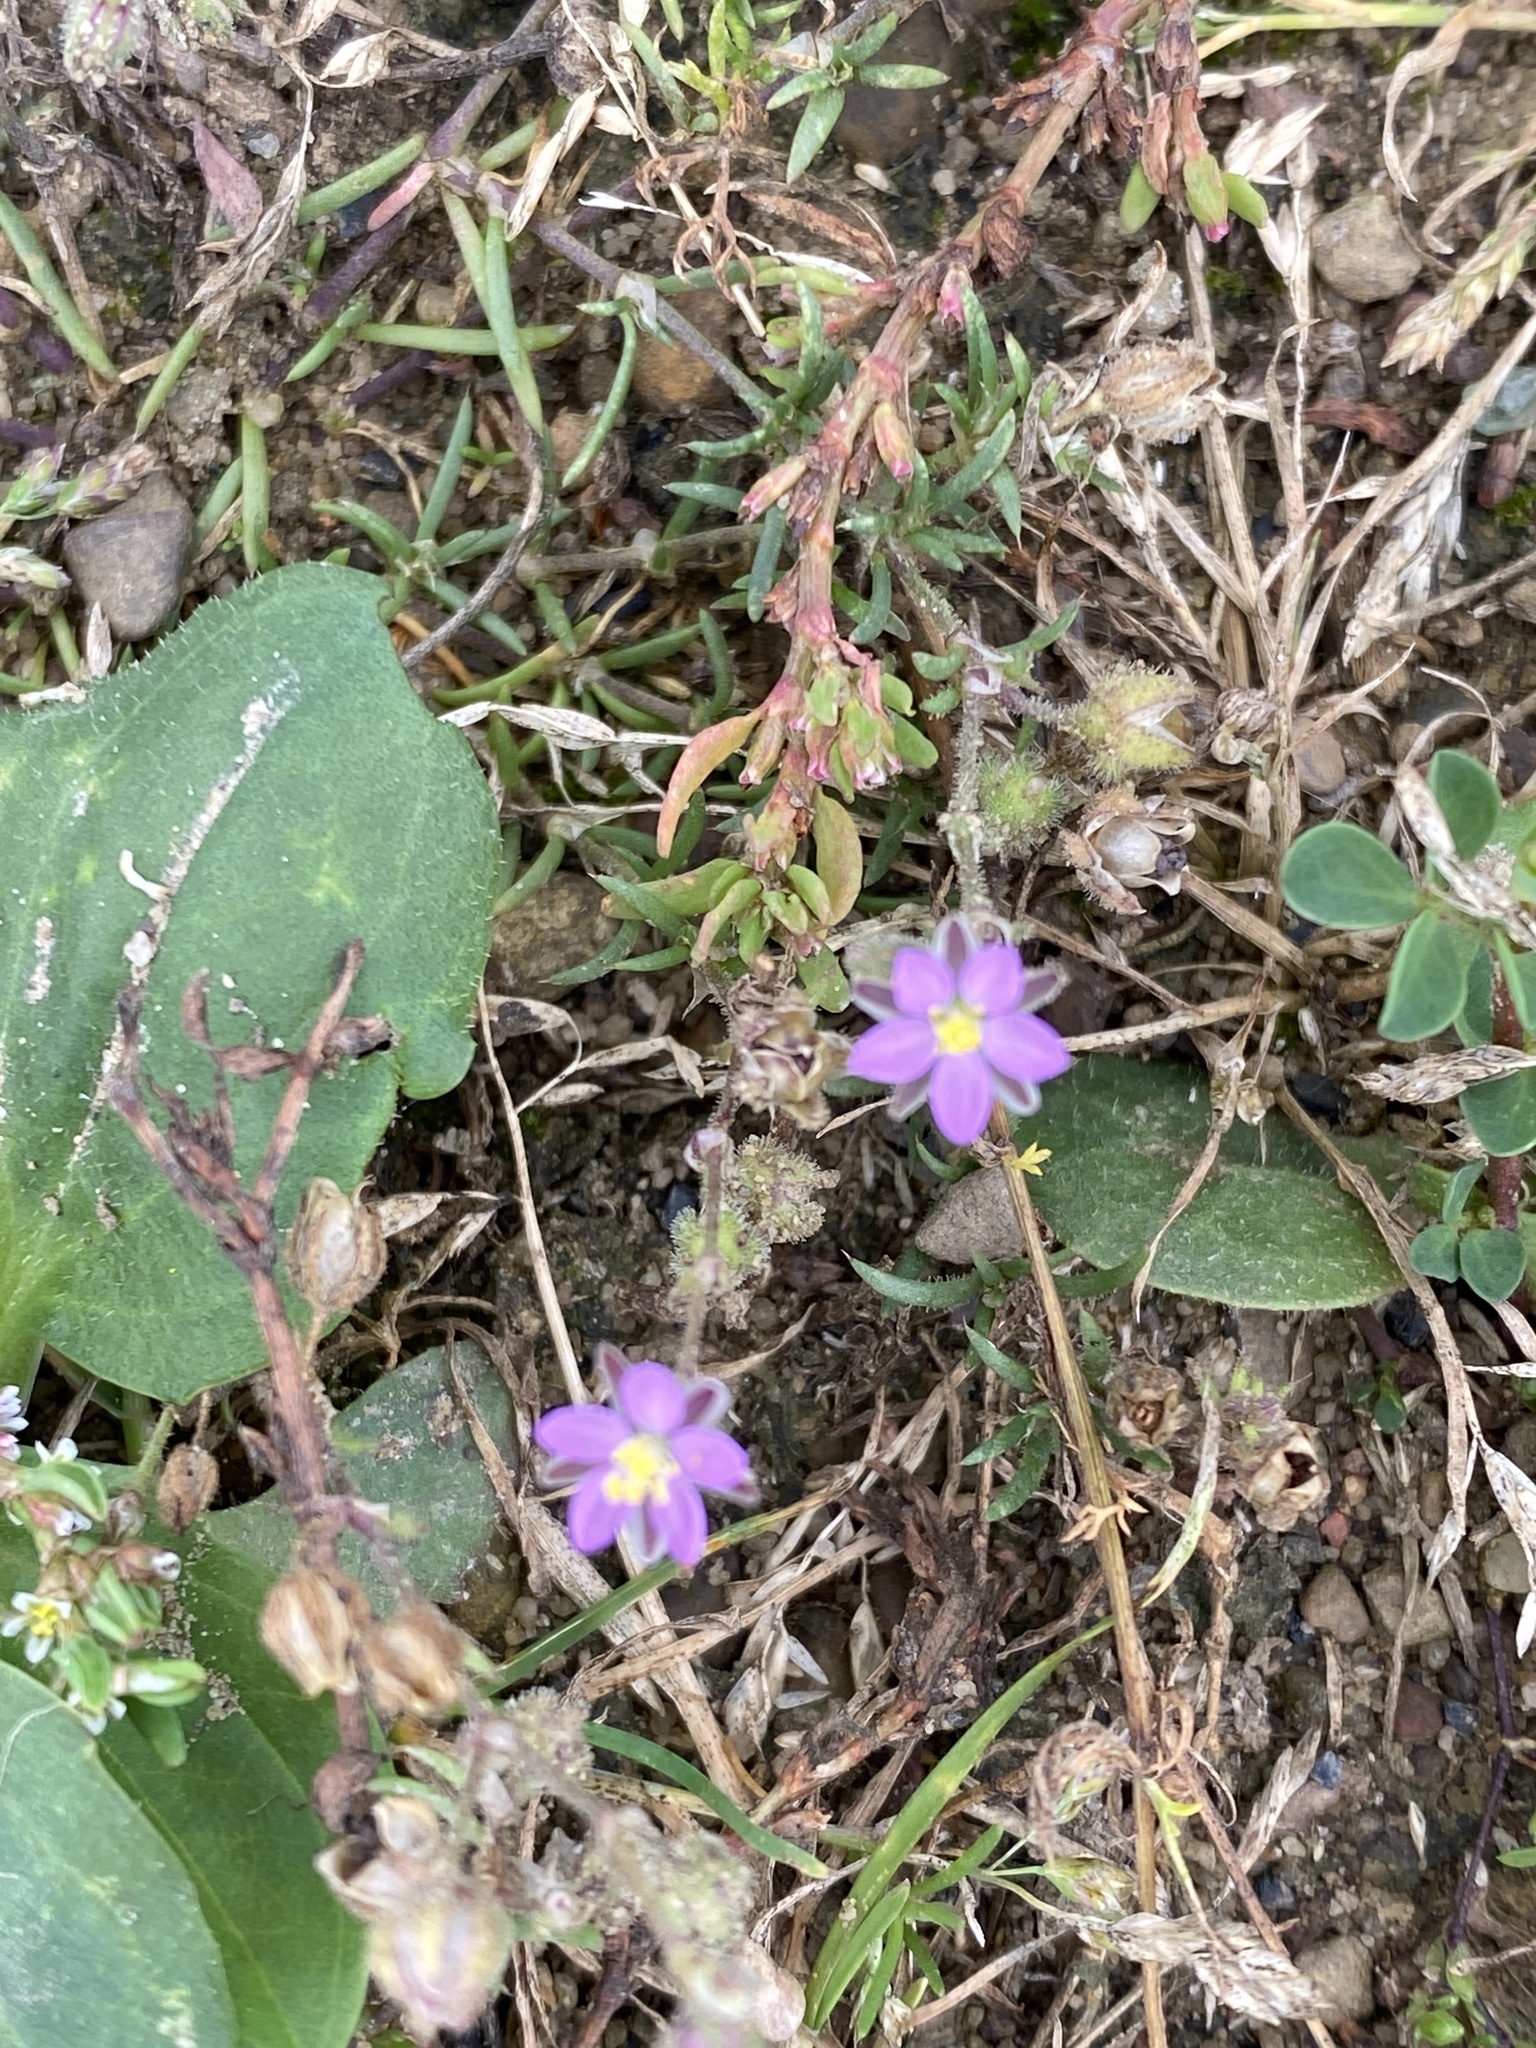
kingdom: Plantae
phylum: Tracheophyta
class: Magnoliopsida
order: Caryophyllales
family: Caryophyllaceae
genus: Spergularia
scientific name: Spergularia rubra
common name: Red sand-spurrey
